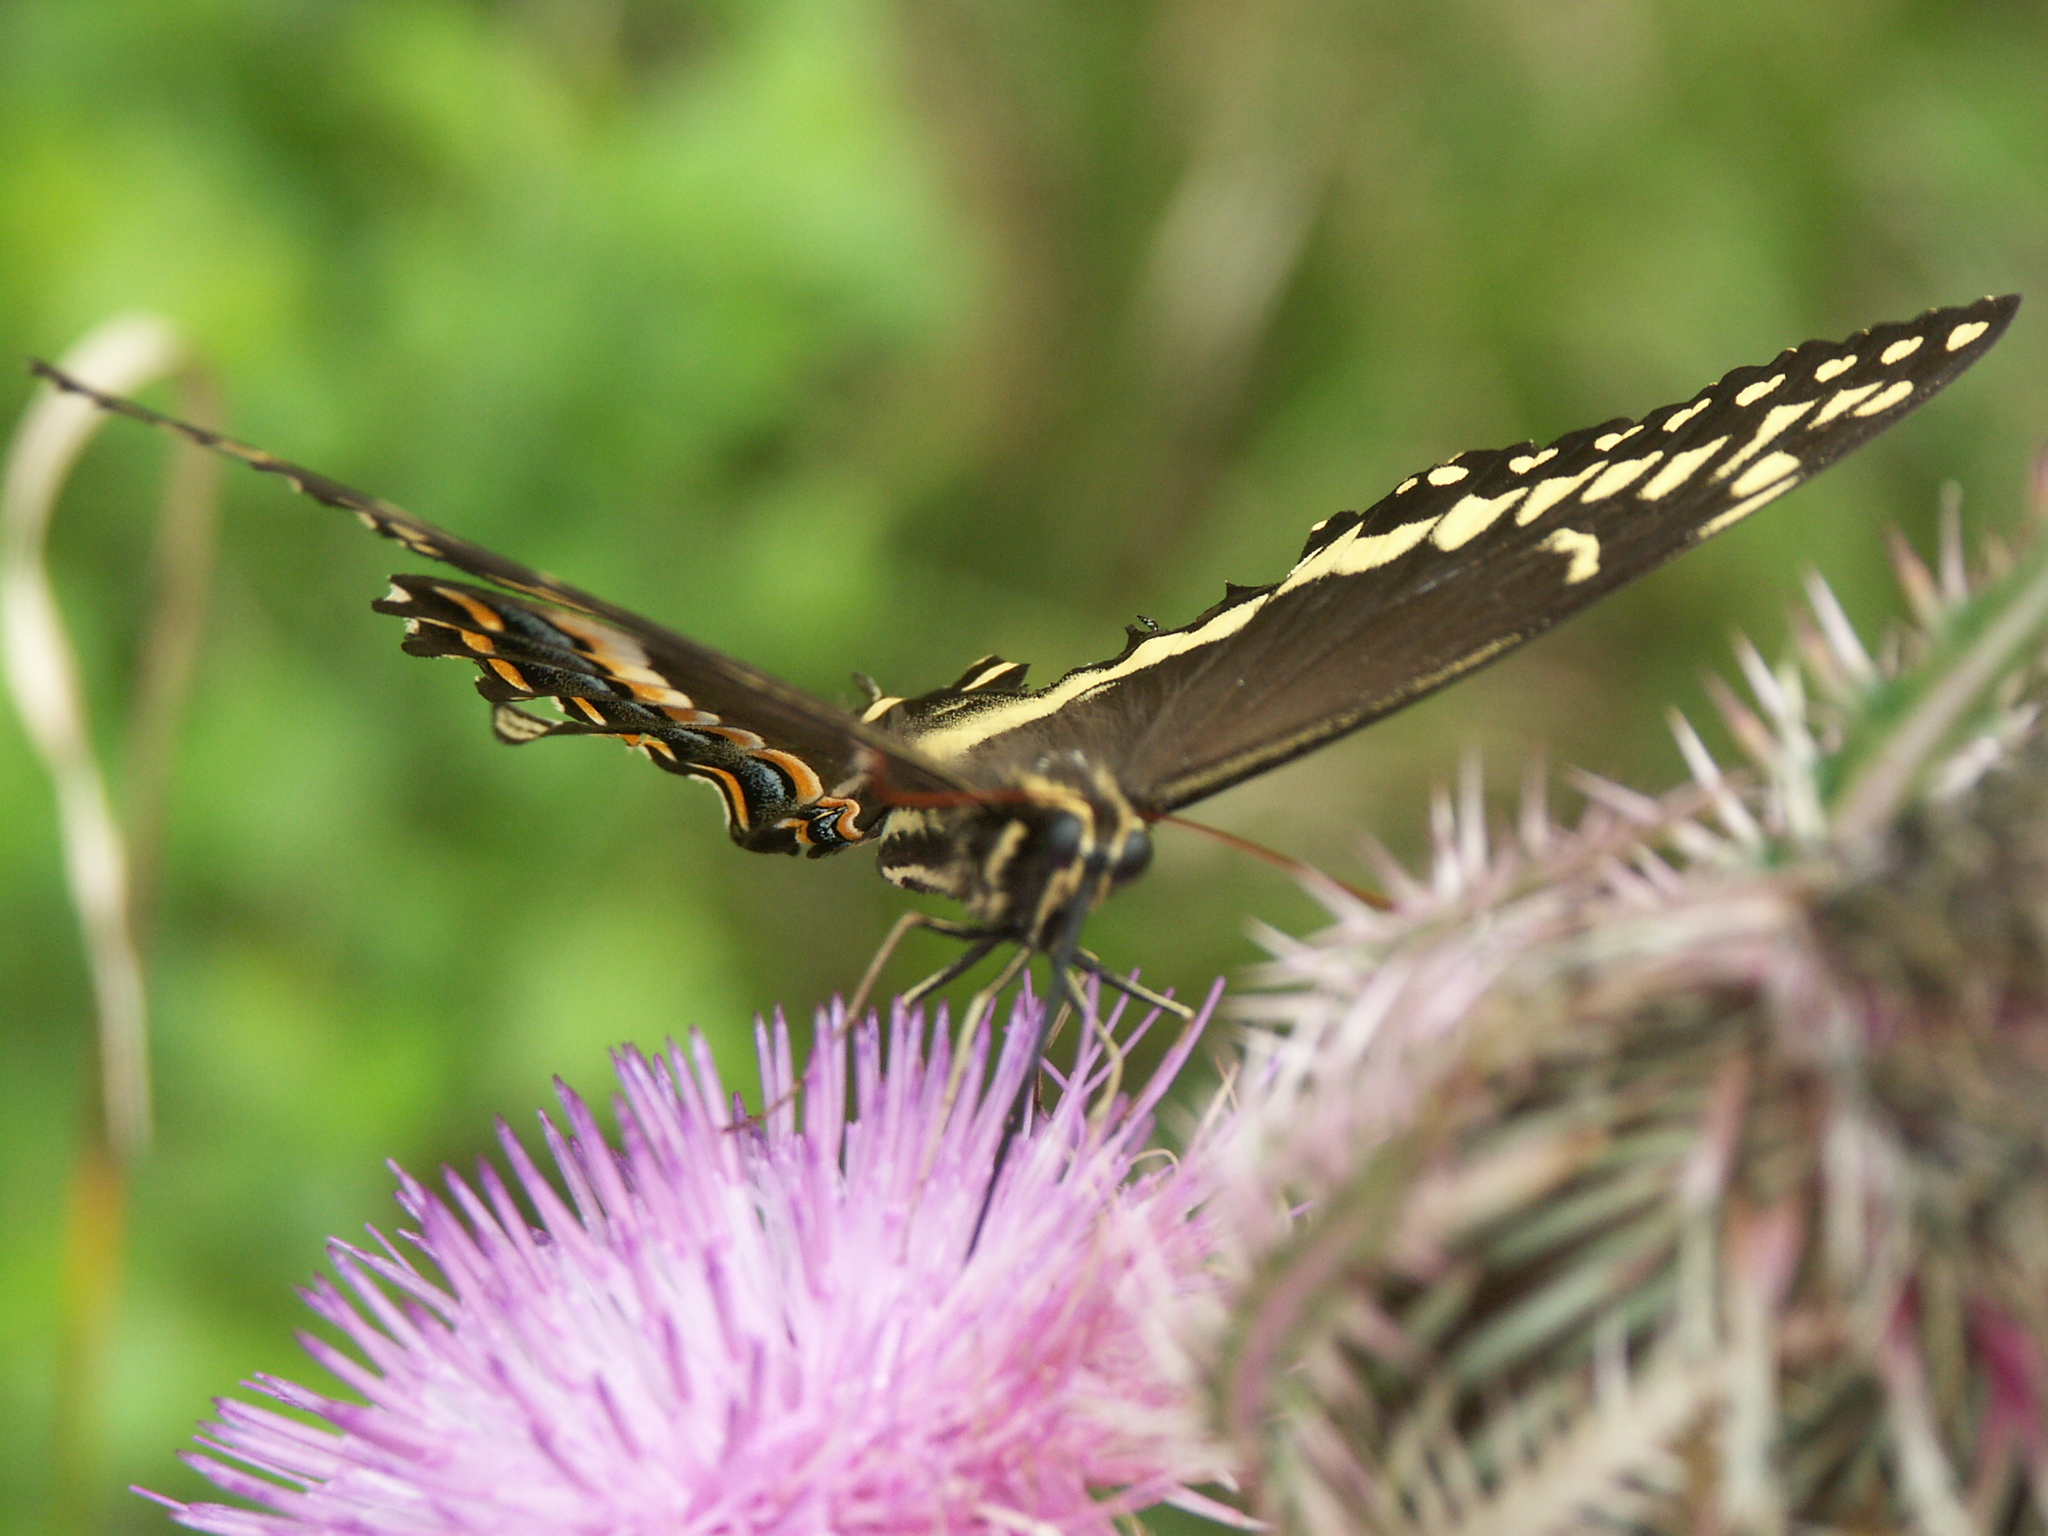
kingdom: Animalia
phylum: Arthropoda
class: Insecta
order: Lepidoptera
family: Papilionidae
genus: Papilio
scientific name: Papilio palamedes
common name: Palamedes swallowtail
